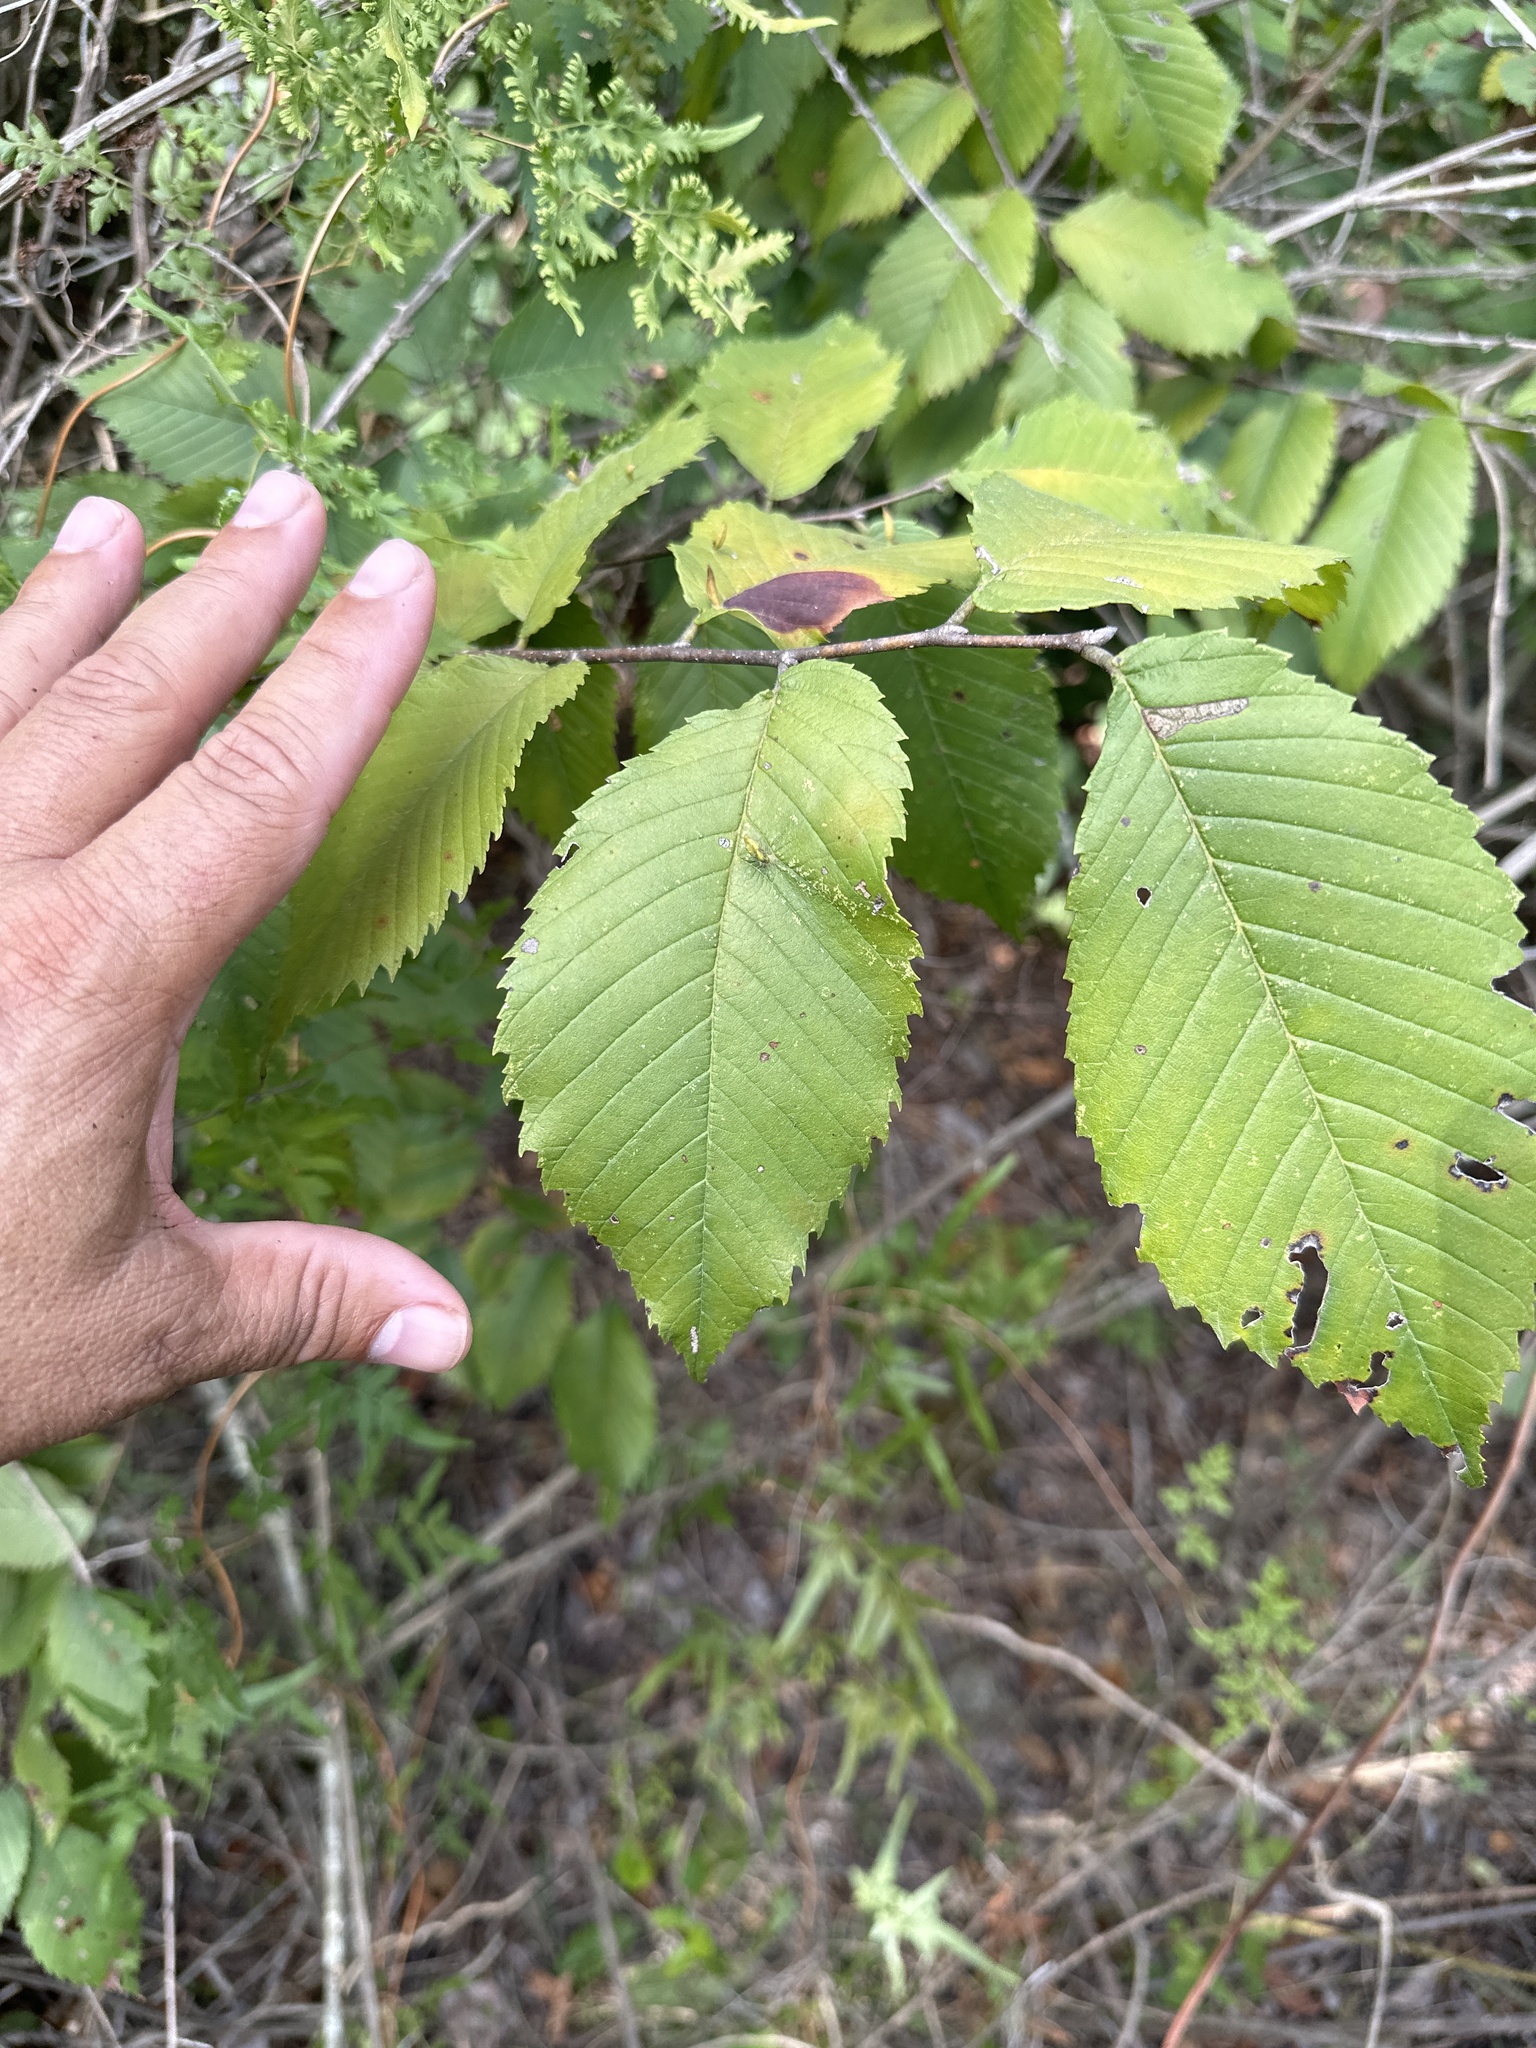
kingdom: Plantae
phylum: Tracheophyta
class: Magnoliopsida
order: Rosales
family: Ulmaceae
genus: Ulmus
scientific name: Ulmus americana
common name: American elm
